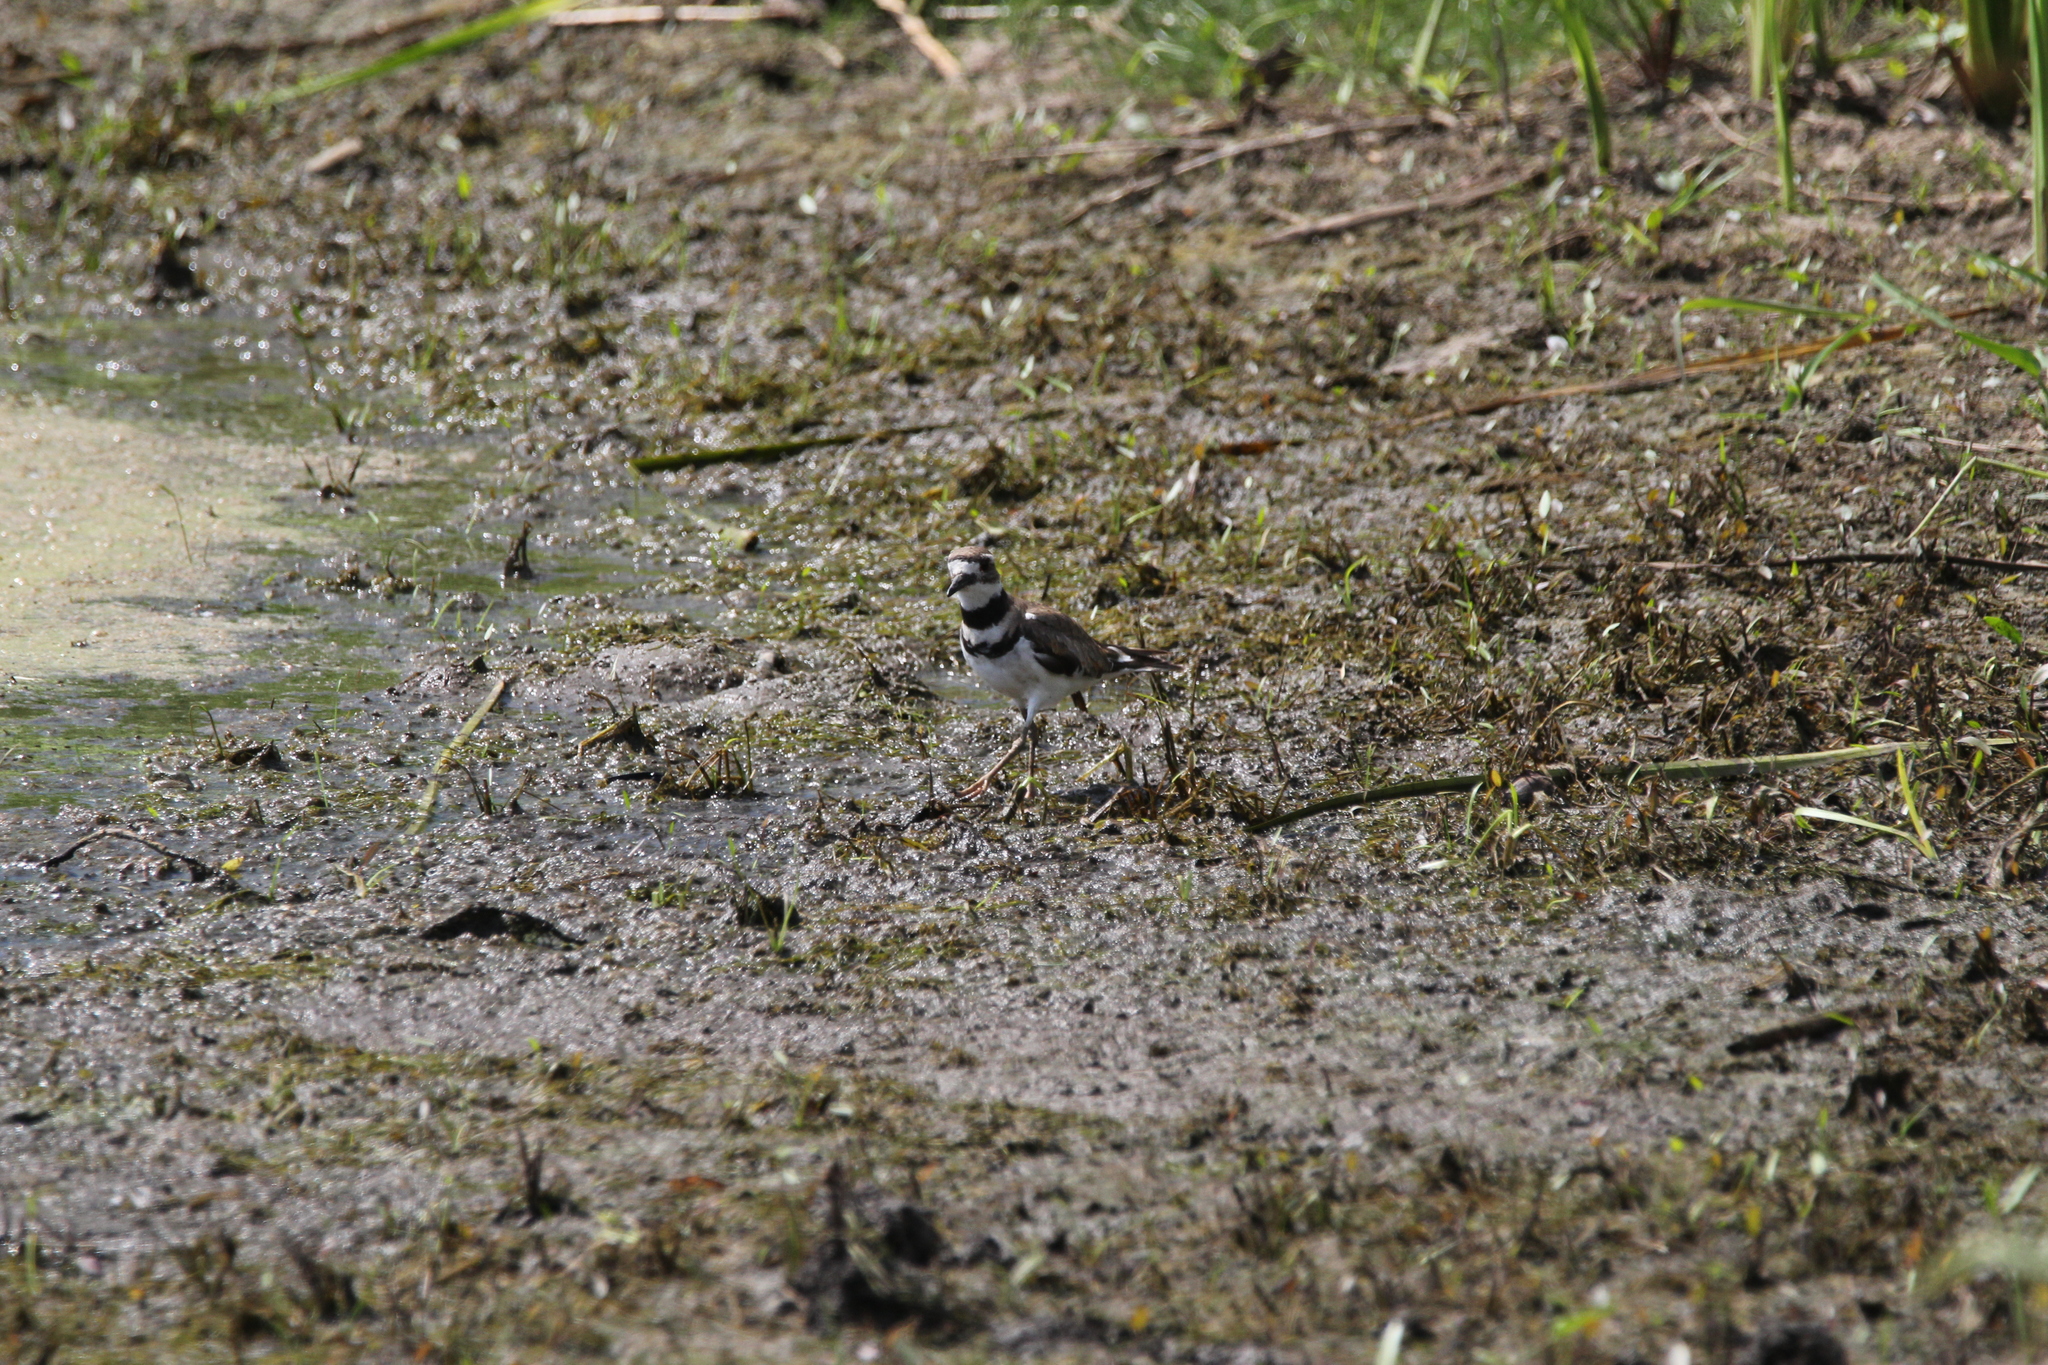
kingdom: Animalia
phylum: Chordata
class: Aves
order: Charadriiformes
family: Charadriidae
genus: Charadrius
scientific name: Charadrius vociferus
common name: Killdeer
